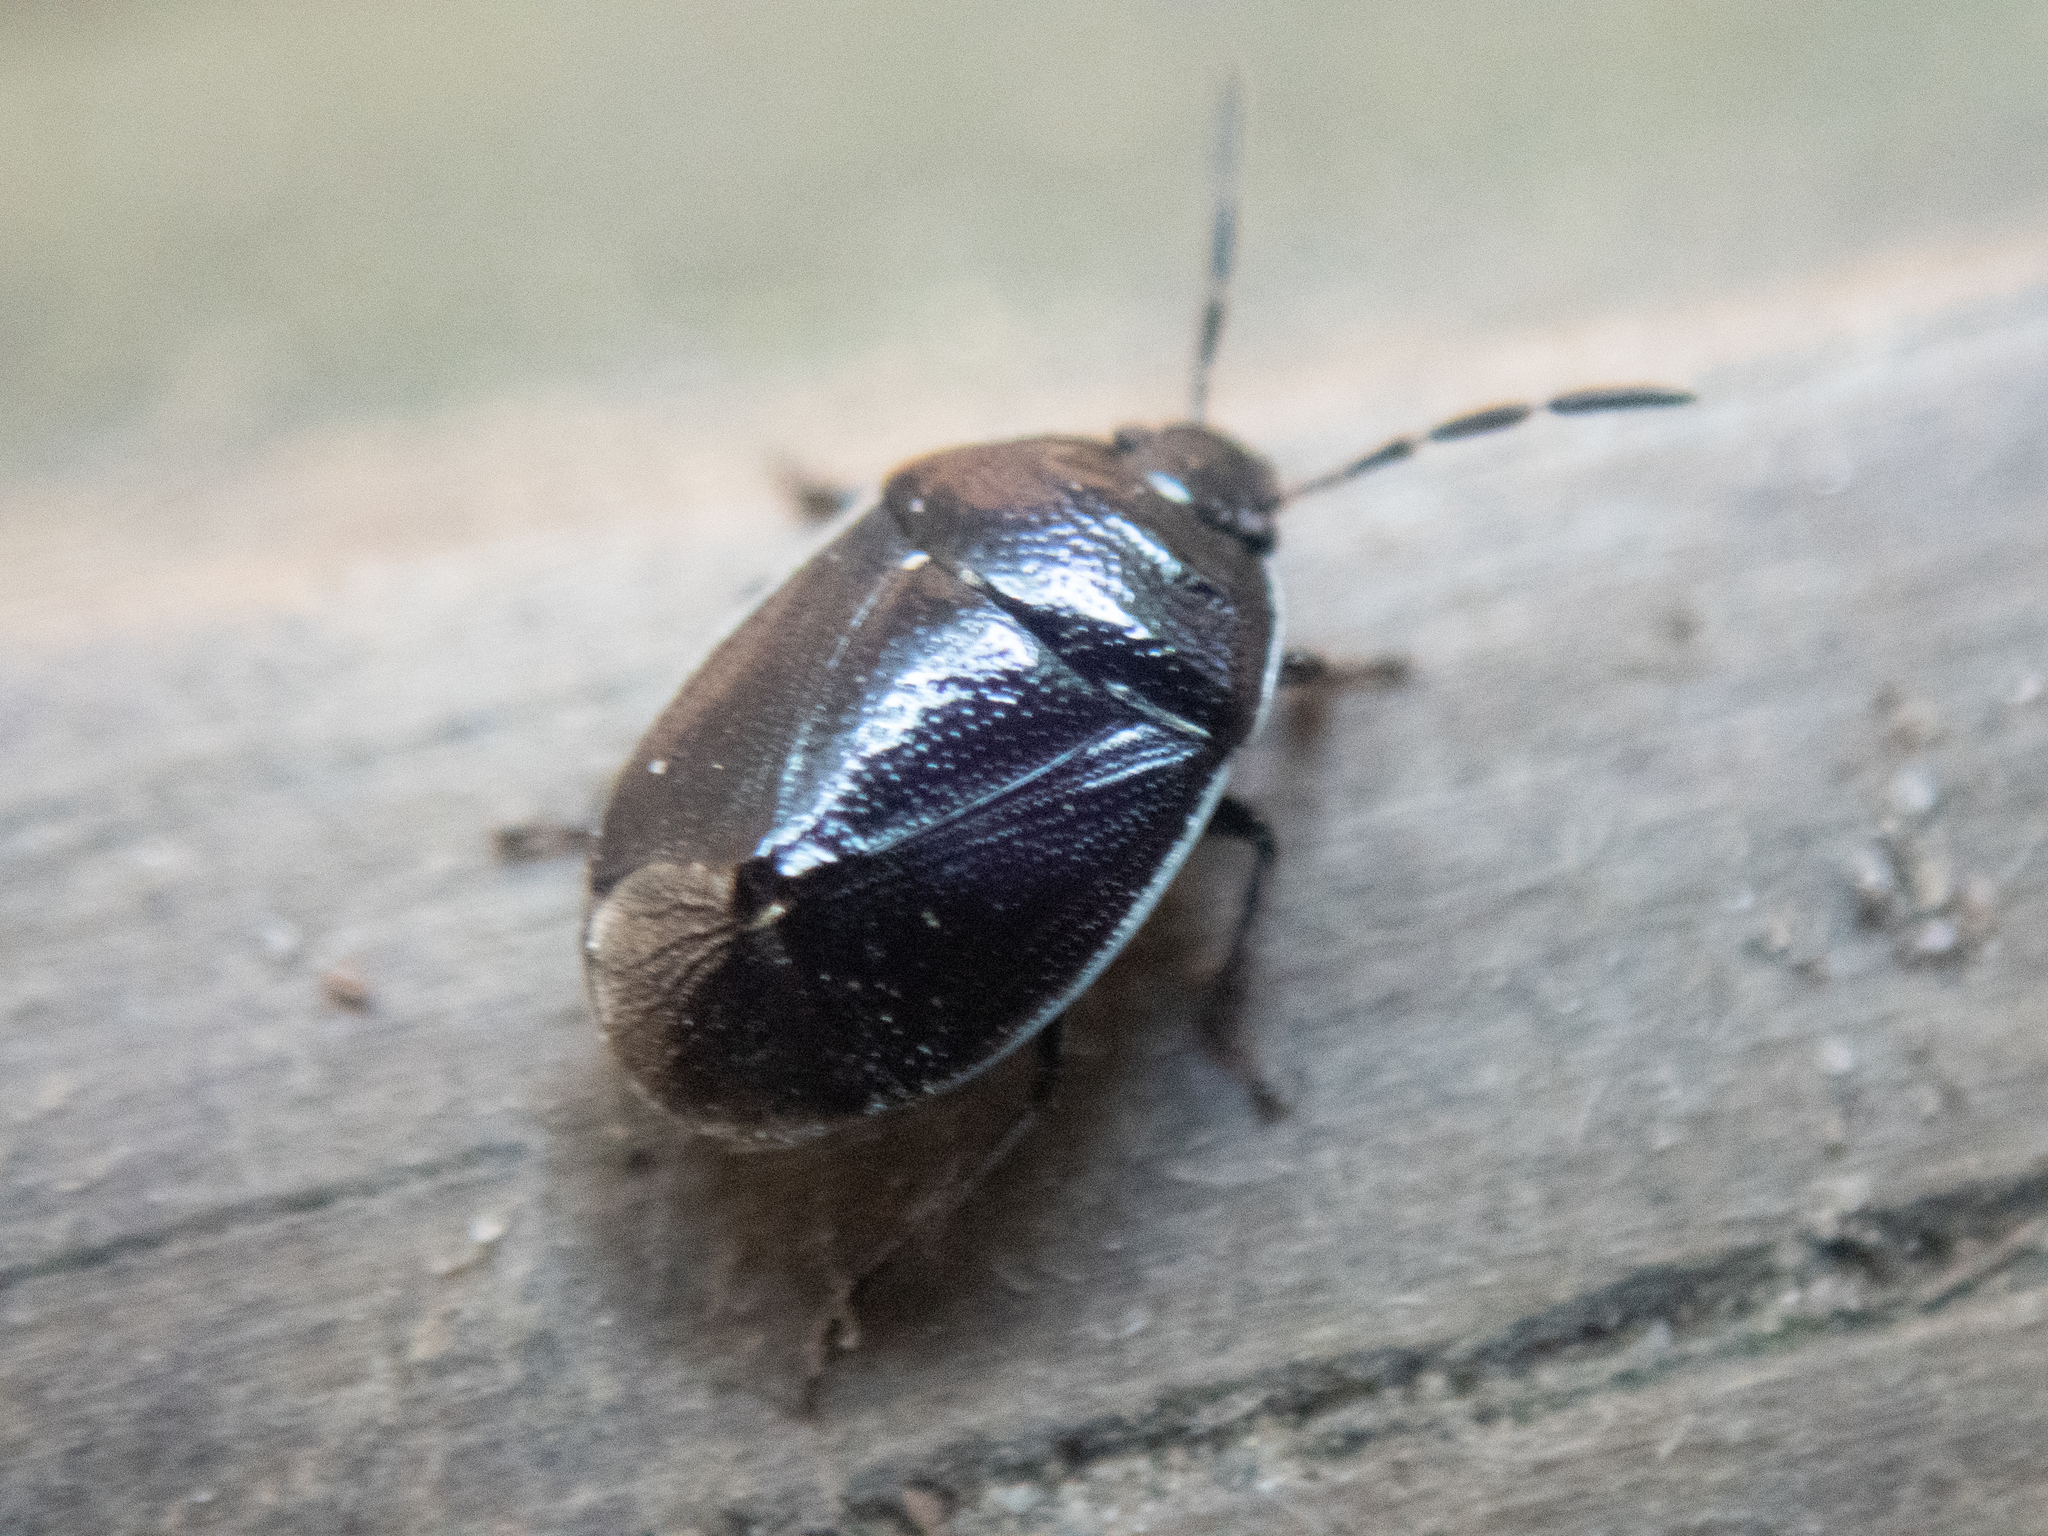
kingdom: Animalia
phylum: Arthropoda
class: Insecta
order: Hemiptera
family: Cydnidae
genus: Sehirus
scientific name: Sehirus cinctus
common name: White-margined burrower bug
